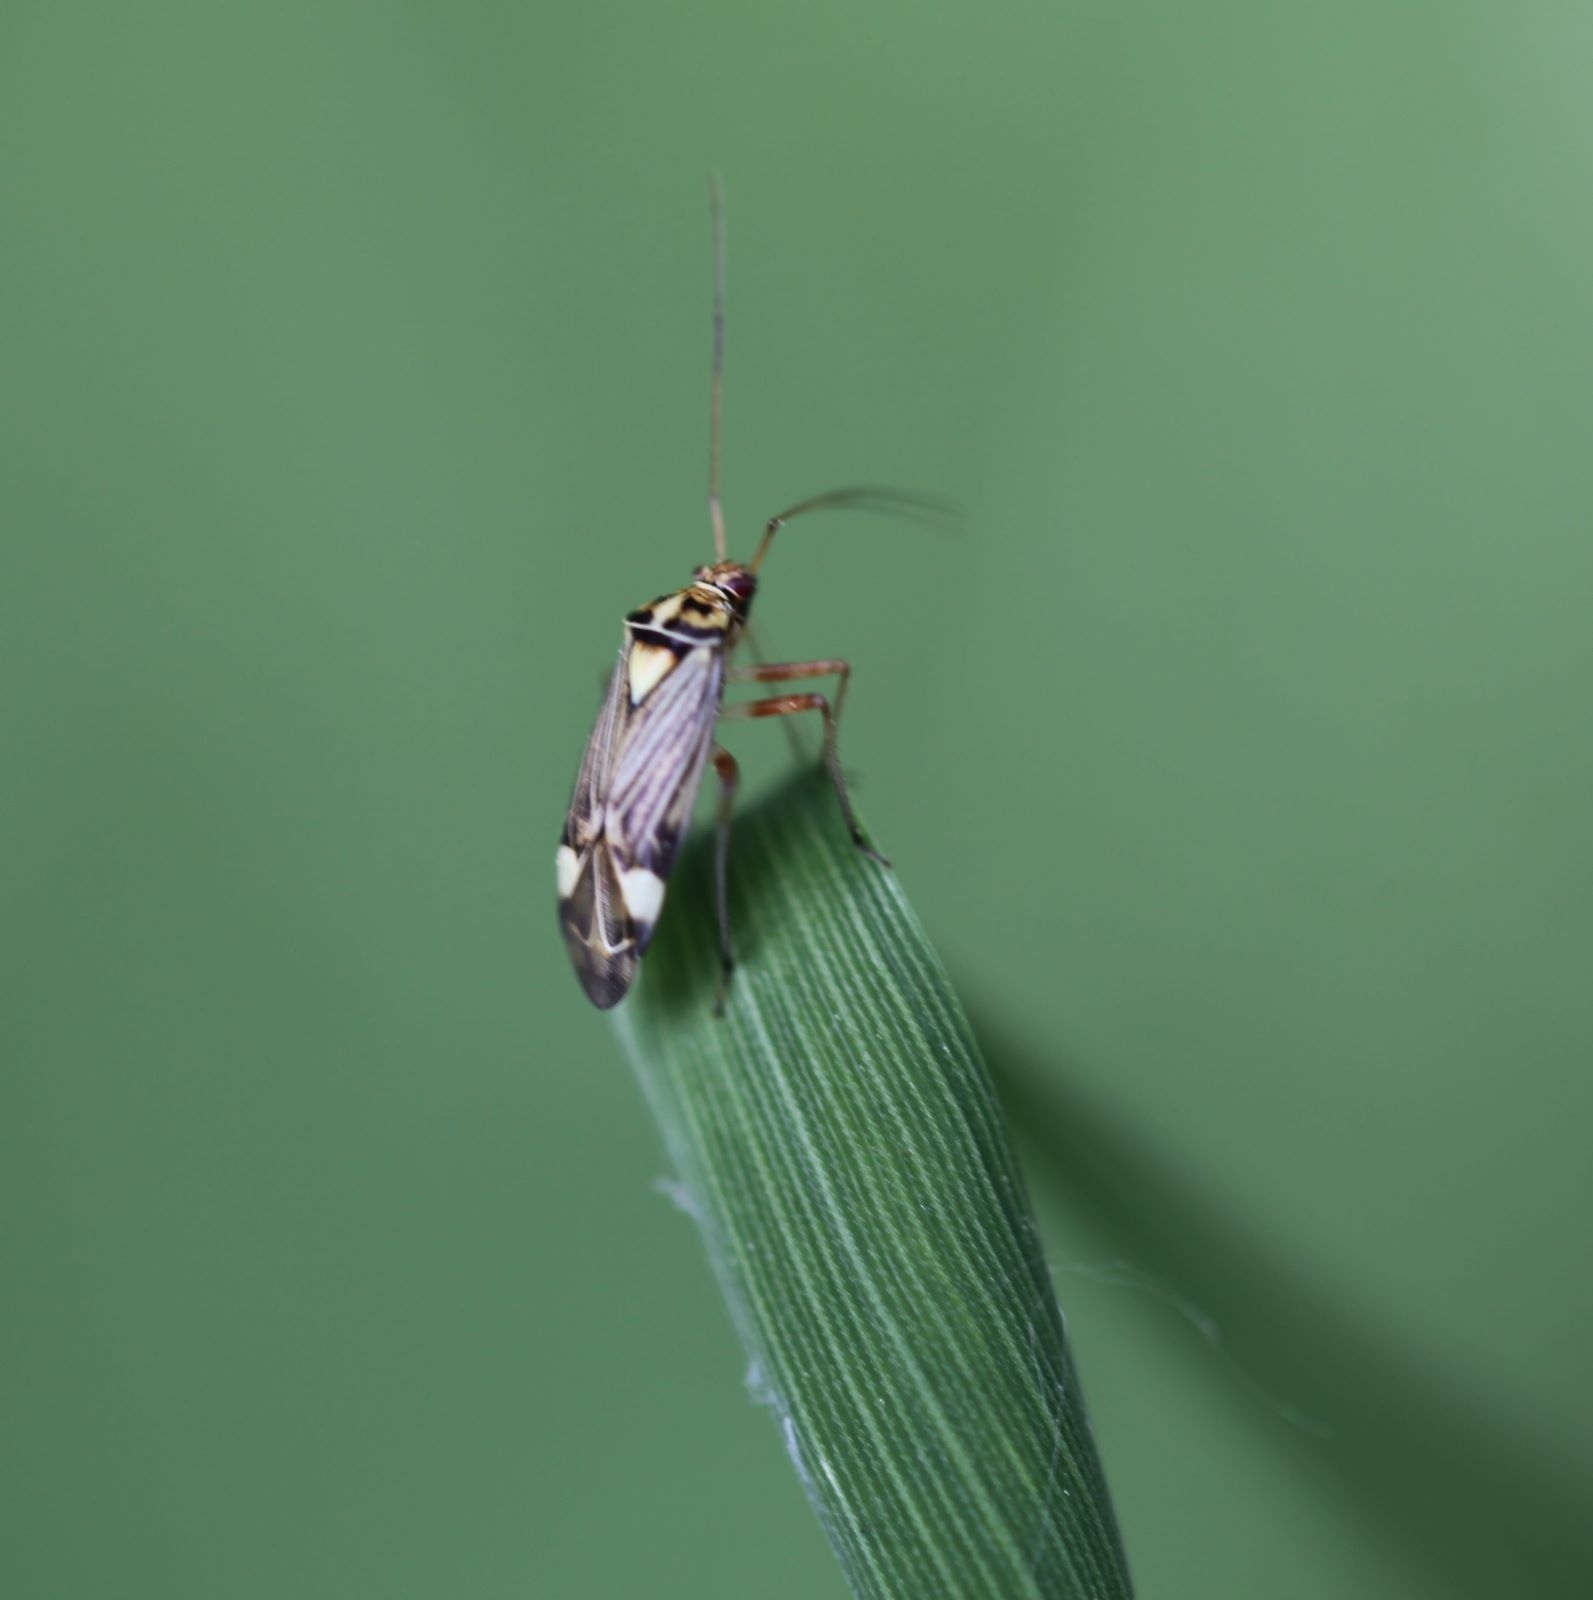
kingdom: Animalia
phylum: Arthropoda
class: Insecta
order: Hemiptera
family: Miridae
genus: Rhabdomiris
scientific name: Rhabdomiris striatellus
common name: Plant bug
